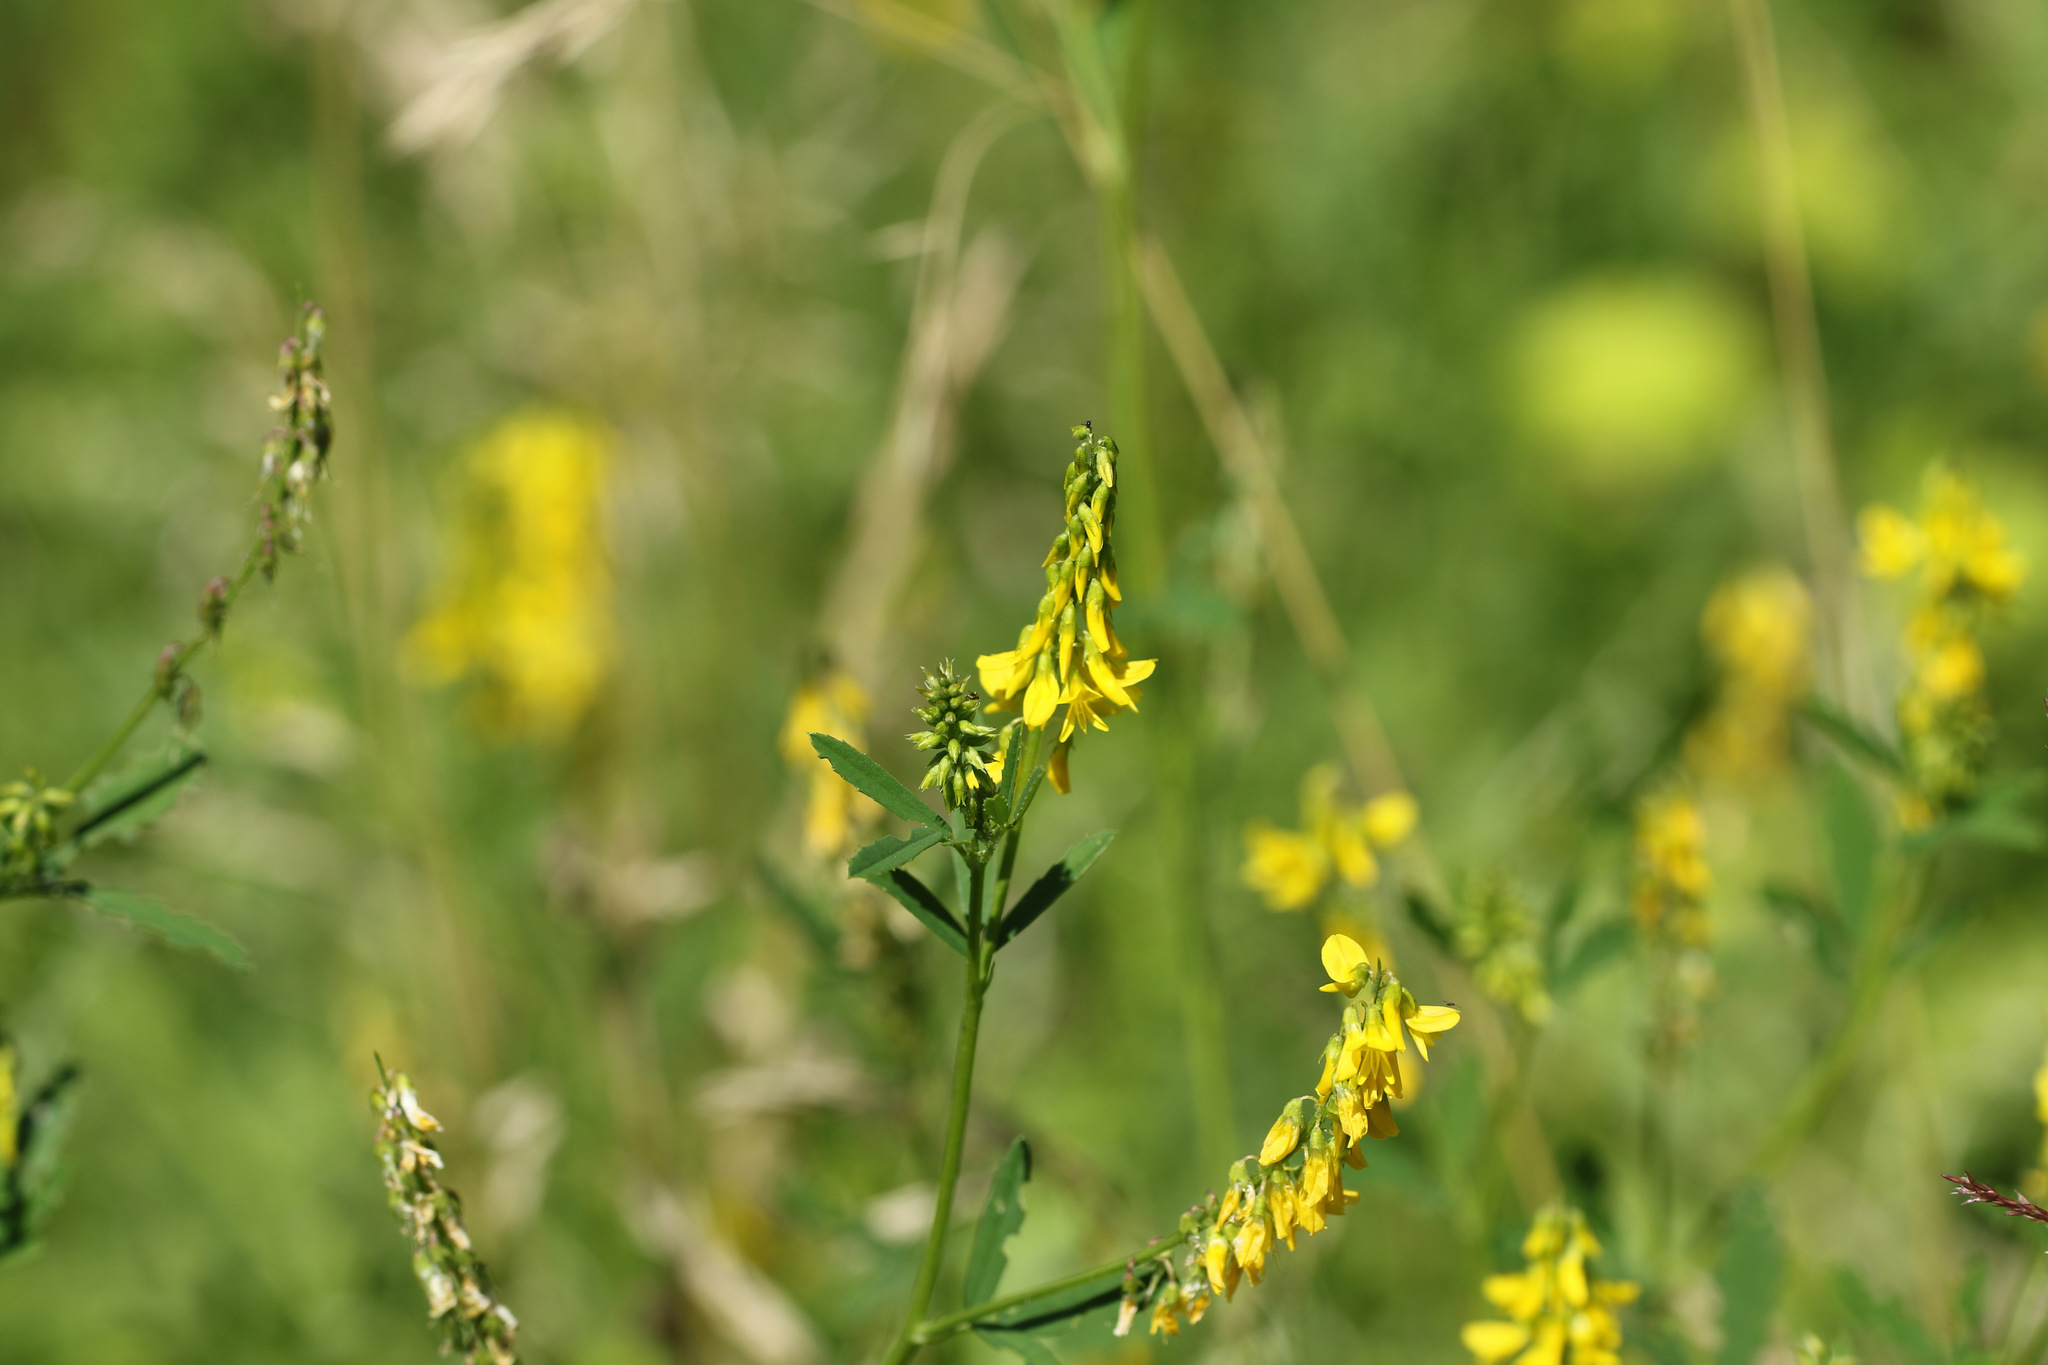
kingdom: Plantae
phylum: Tracheophyta
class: Magnoliopsida
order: Fabales
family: Fabaceae
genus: Melilotus
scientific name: Melilotus officinalis
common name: Sweetclover
